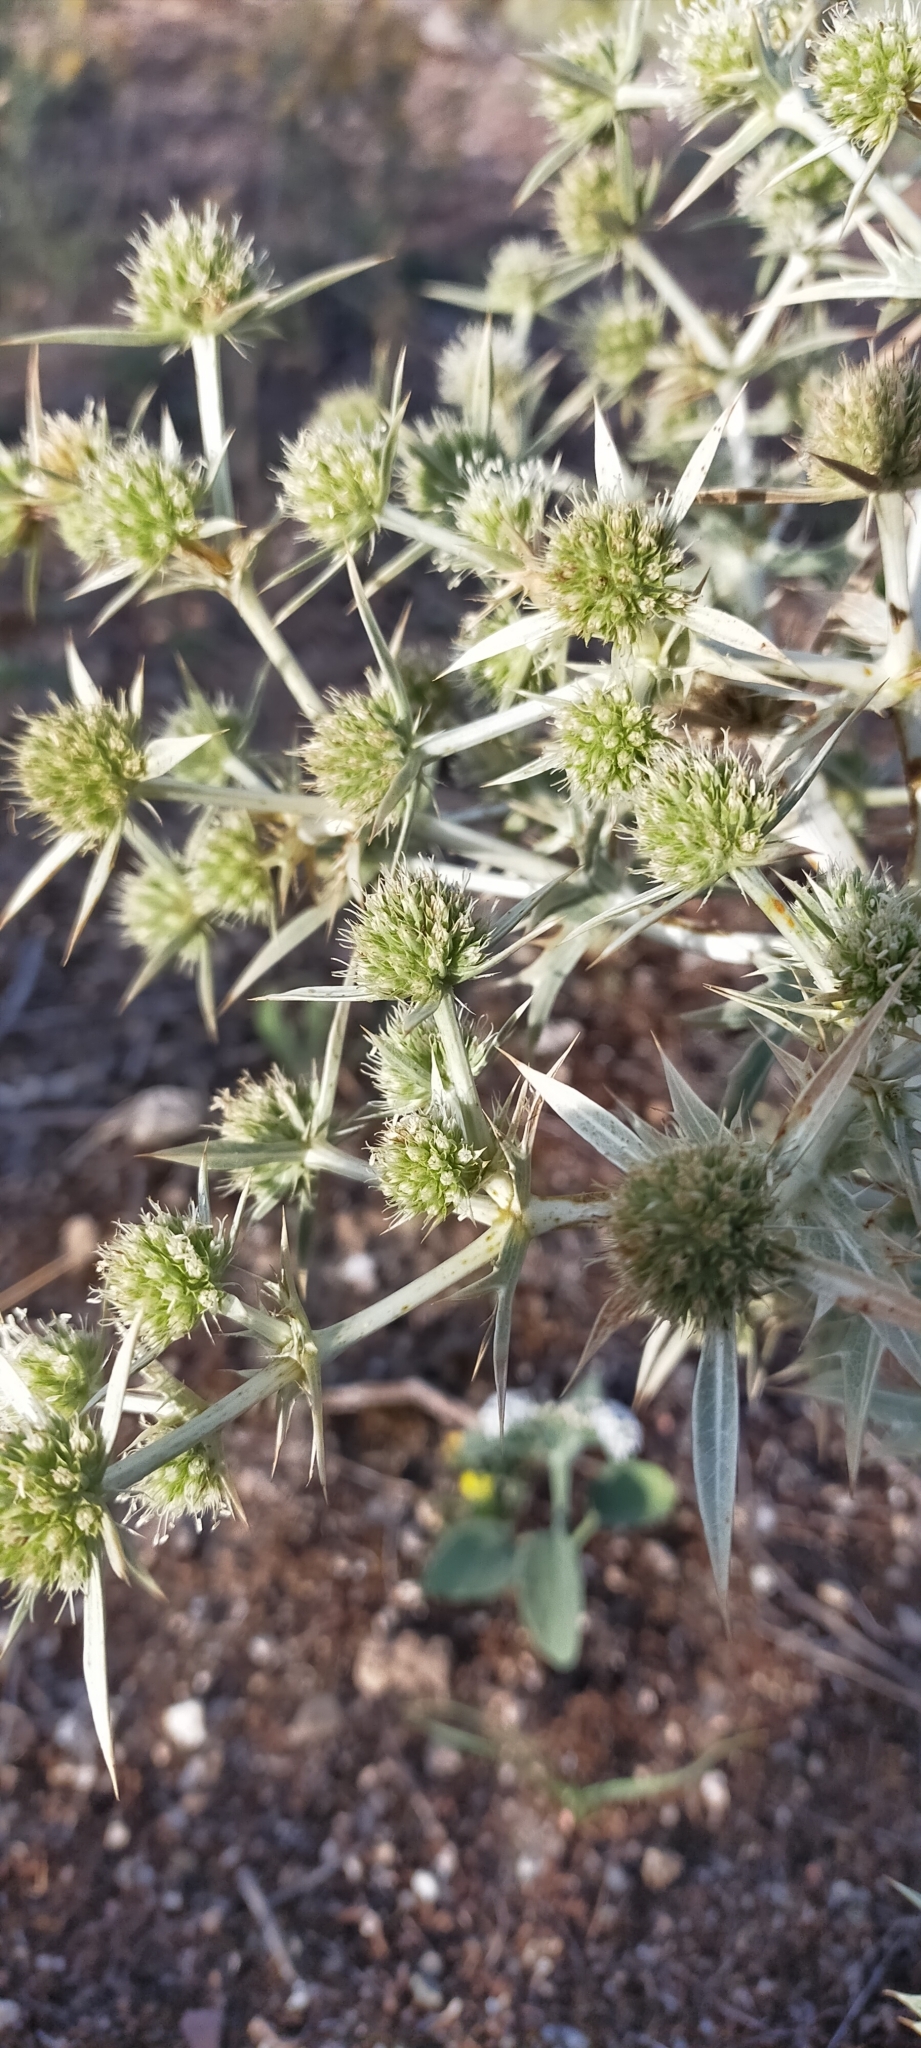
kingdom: Plantae
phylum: Tracheophyta
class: Magnoliopsida
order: Apiales
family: Apiaceae
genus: Eryngium
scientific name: Eryngium campestre
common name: Field eryngo
